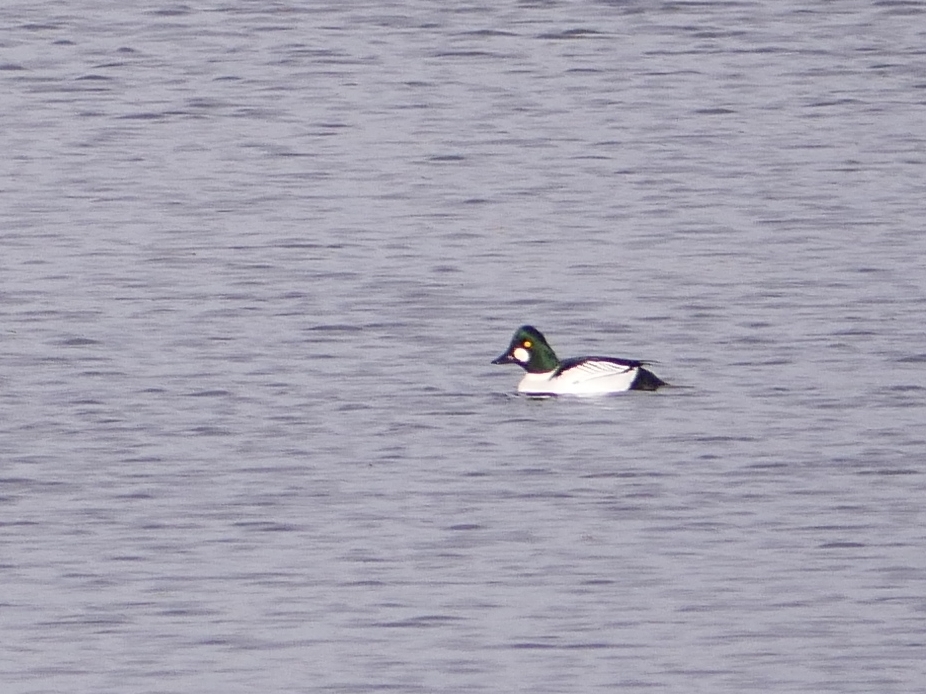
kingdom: Animalia
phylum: Chordata
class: Aves
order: Anseriformes
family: Anatidae
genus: Bucephala
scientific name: Bucephala clangula
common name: Common goldeneye
